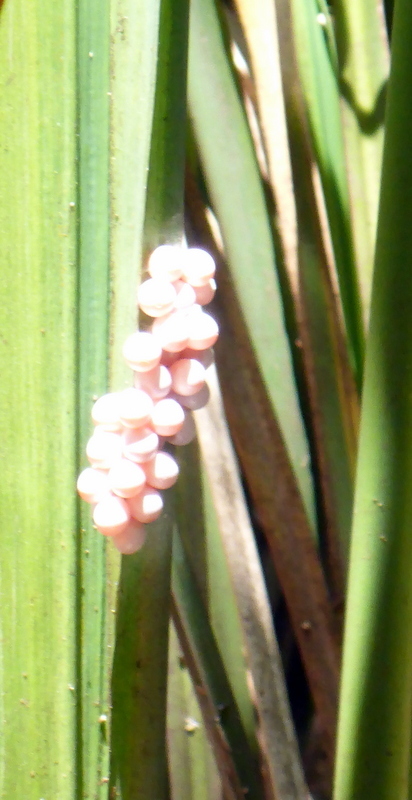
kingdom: Animalia
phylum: Mollusca
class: Gastropoda
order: Architaenioglossa
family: Ampullariidae
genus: Pomacea
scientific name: Pomacea paludosa
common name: Florida applesnail
